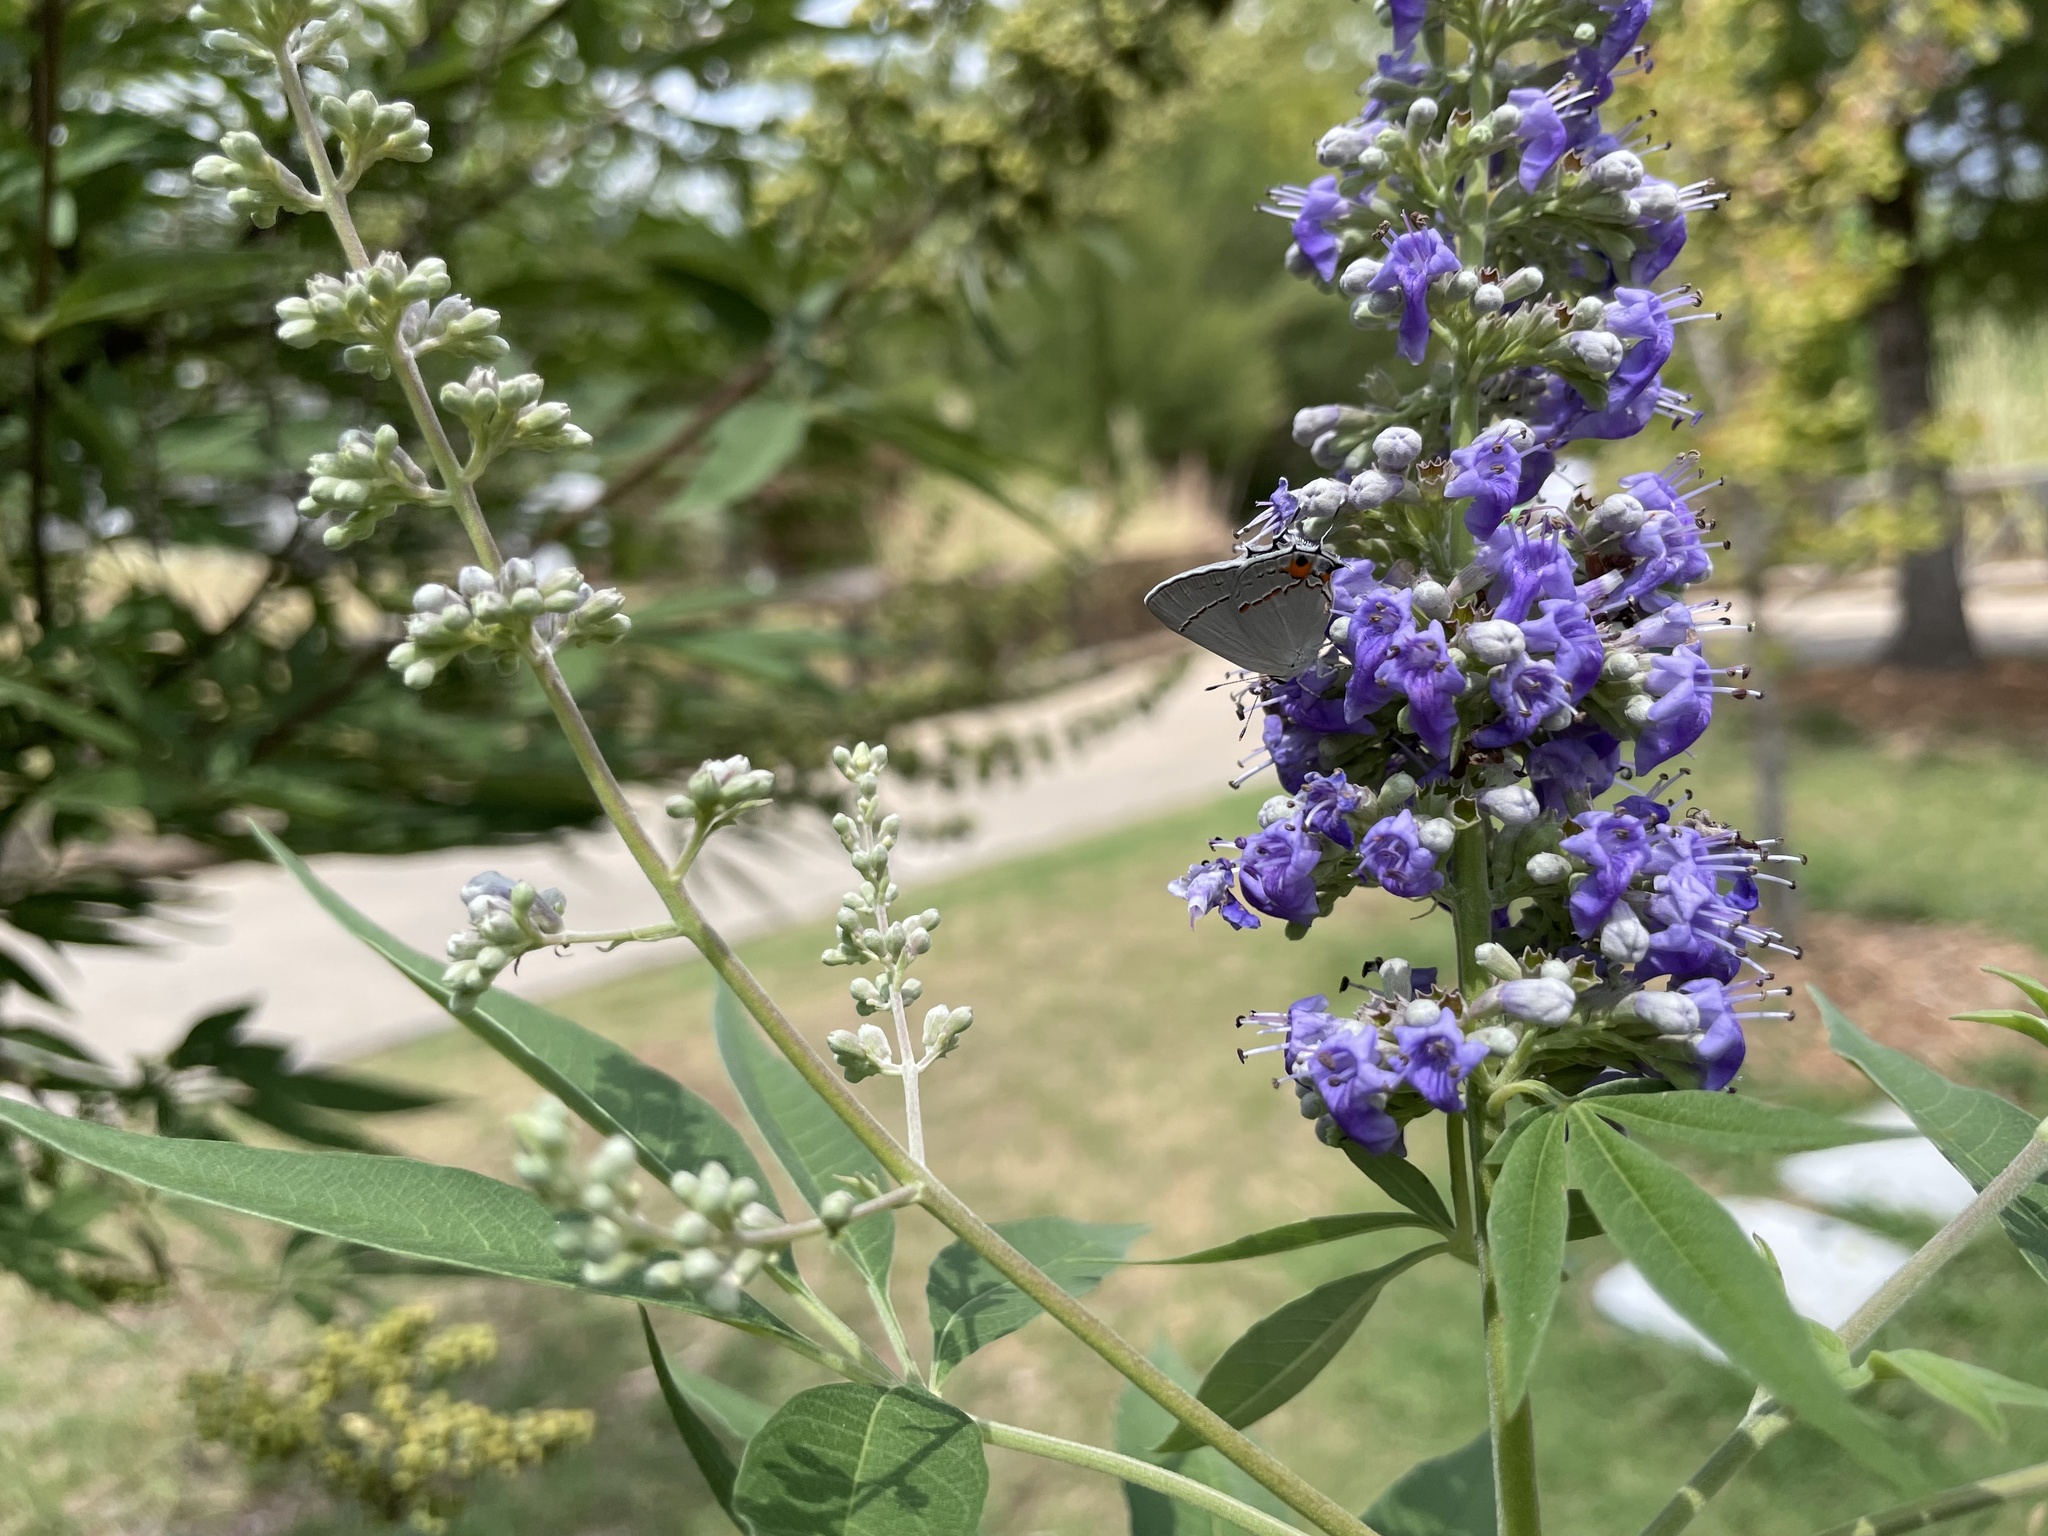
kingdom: Animalia
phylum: Arthropoda
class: Insecta
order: Lepidoptera
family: Lycaenidae
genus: Strymon
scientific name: Strymon melinus
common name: Gray hairstreak
